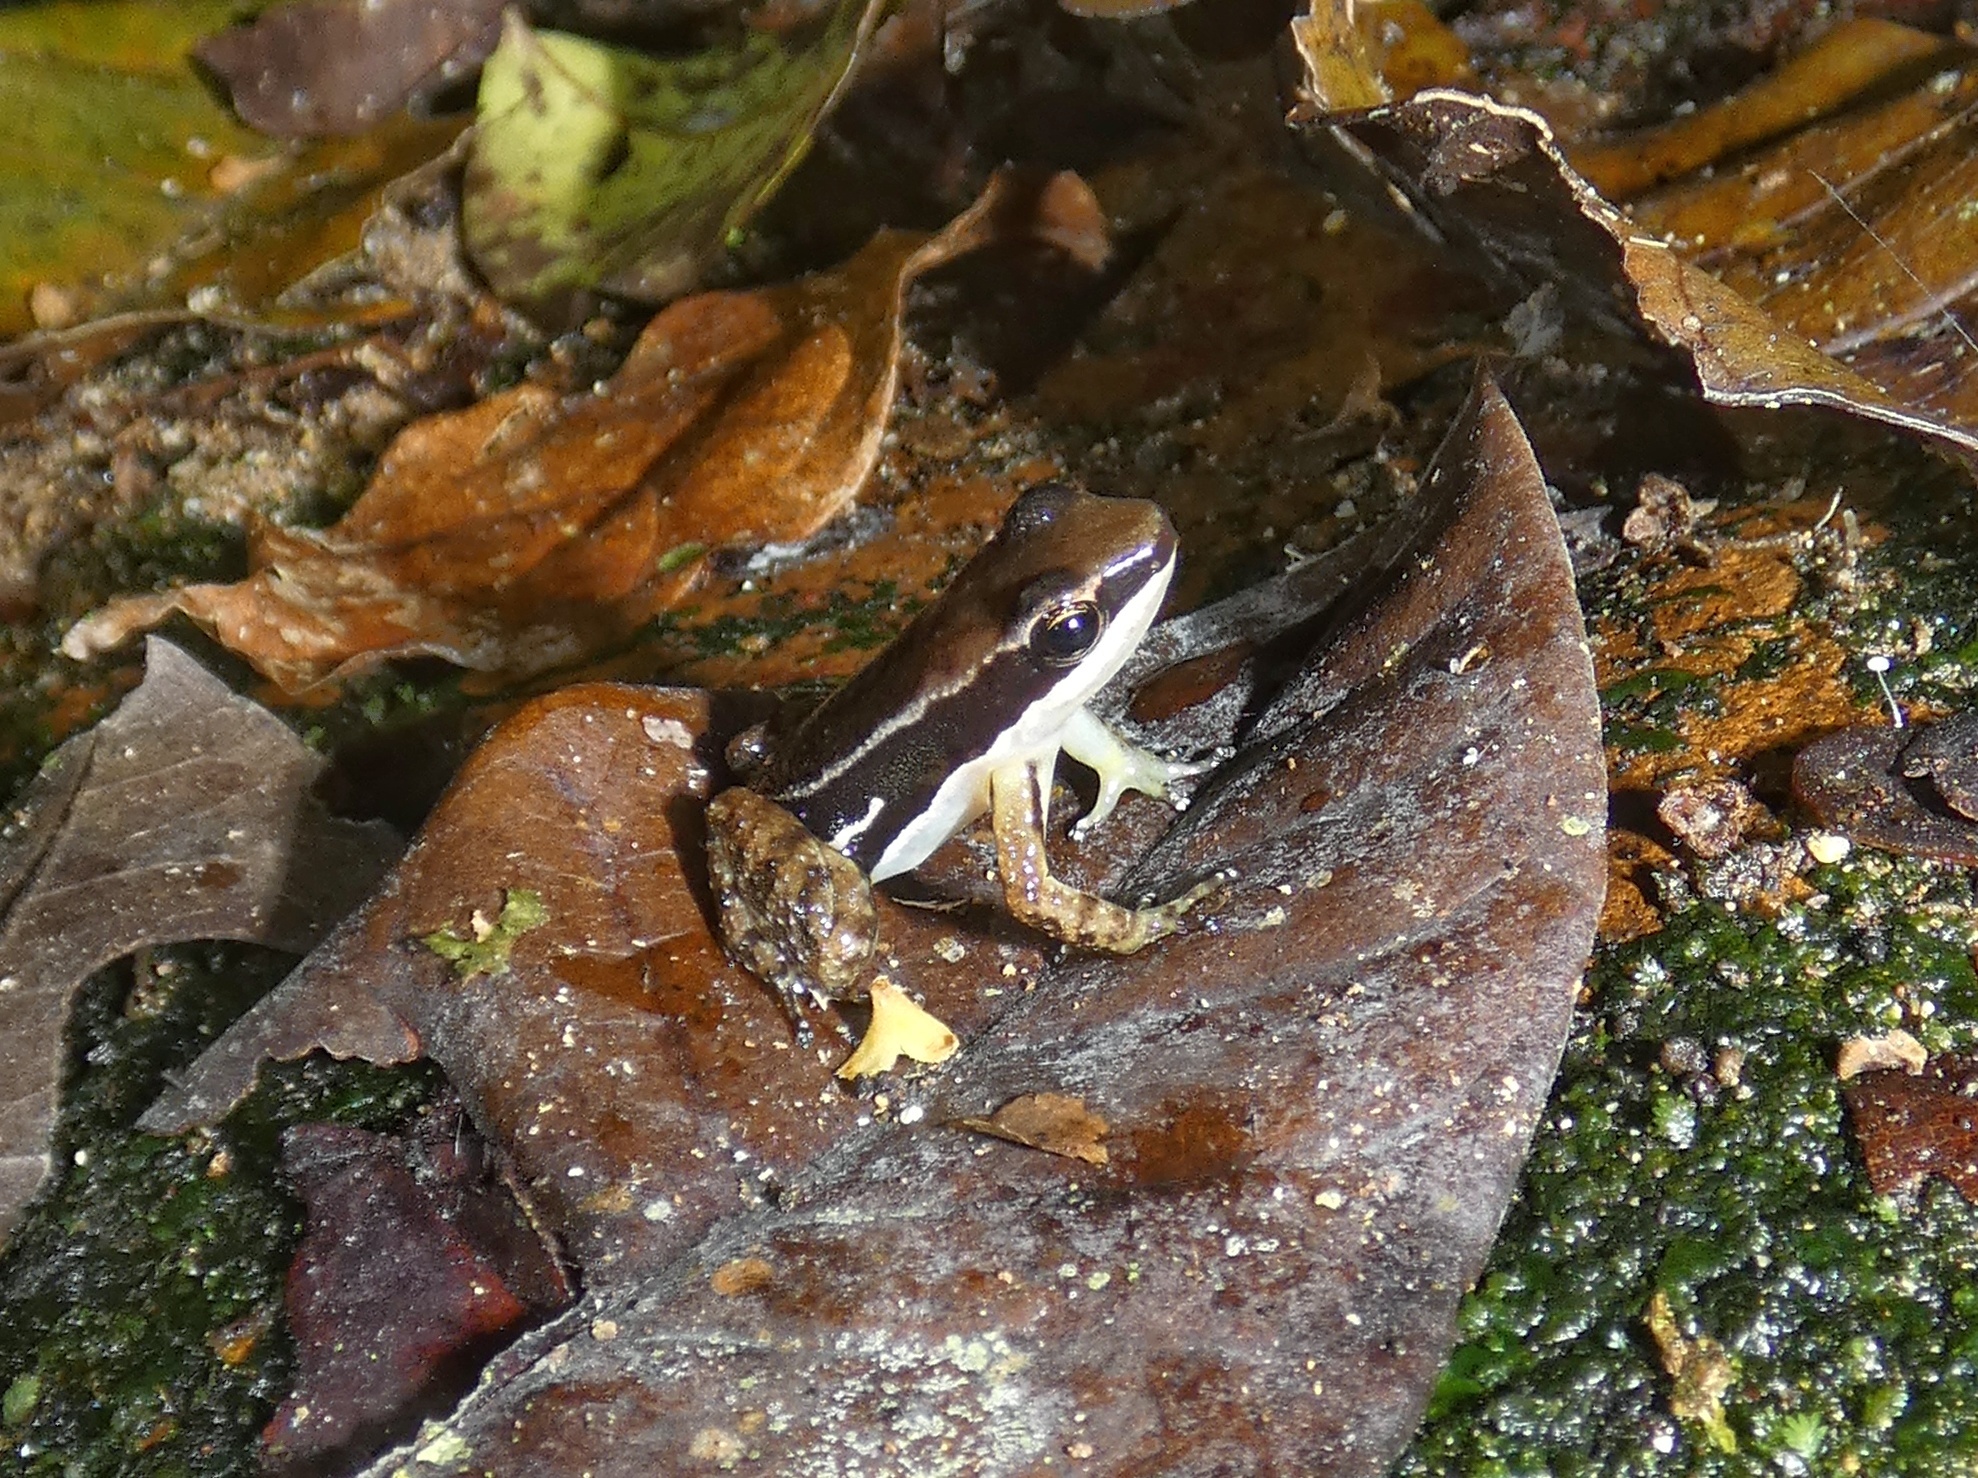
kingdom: Animalia
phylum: Chordata
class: Amphibia
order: Anura
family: Dendrobatidae
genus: Colostethus
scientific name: Colostethus pratti
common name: Pratt's rocket frog
